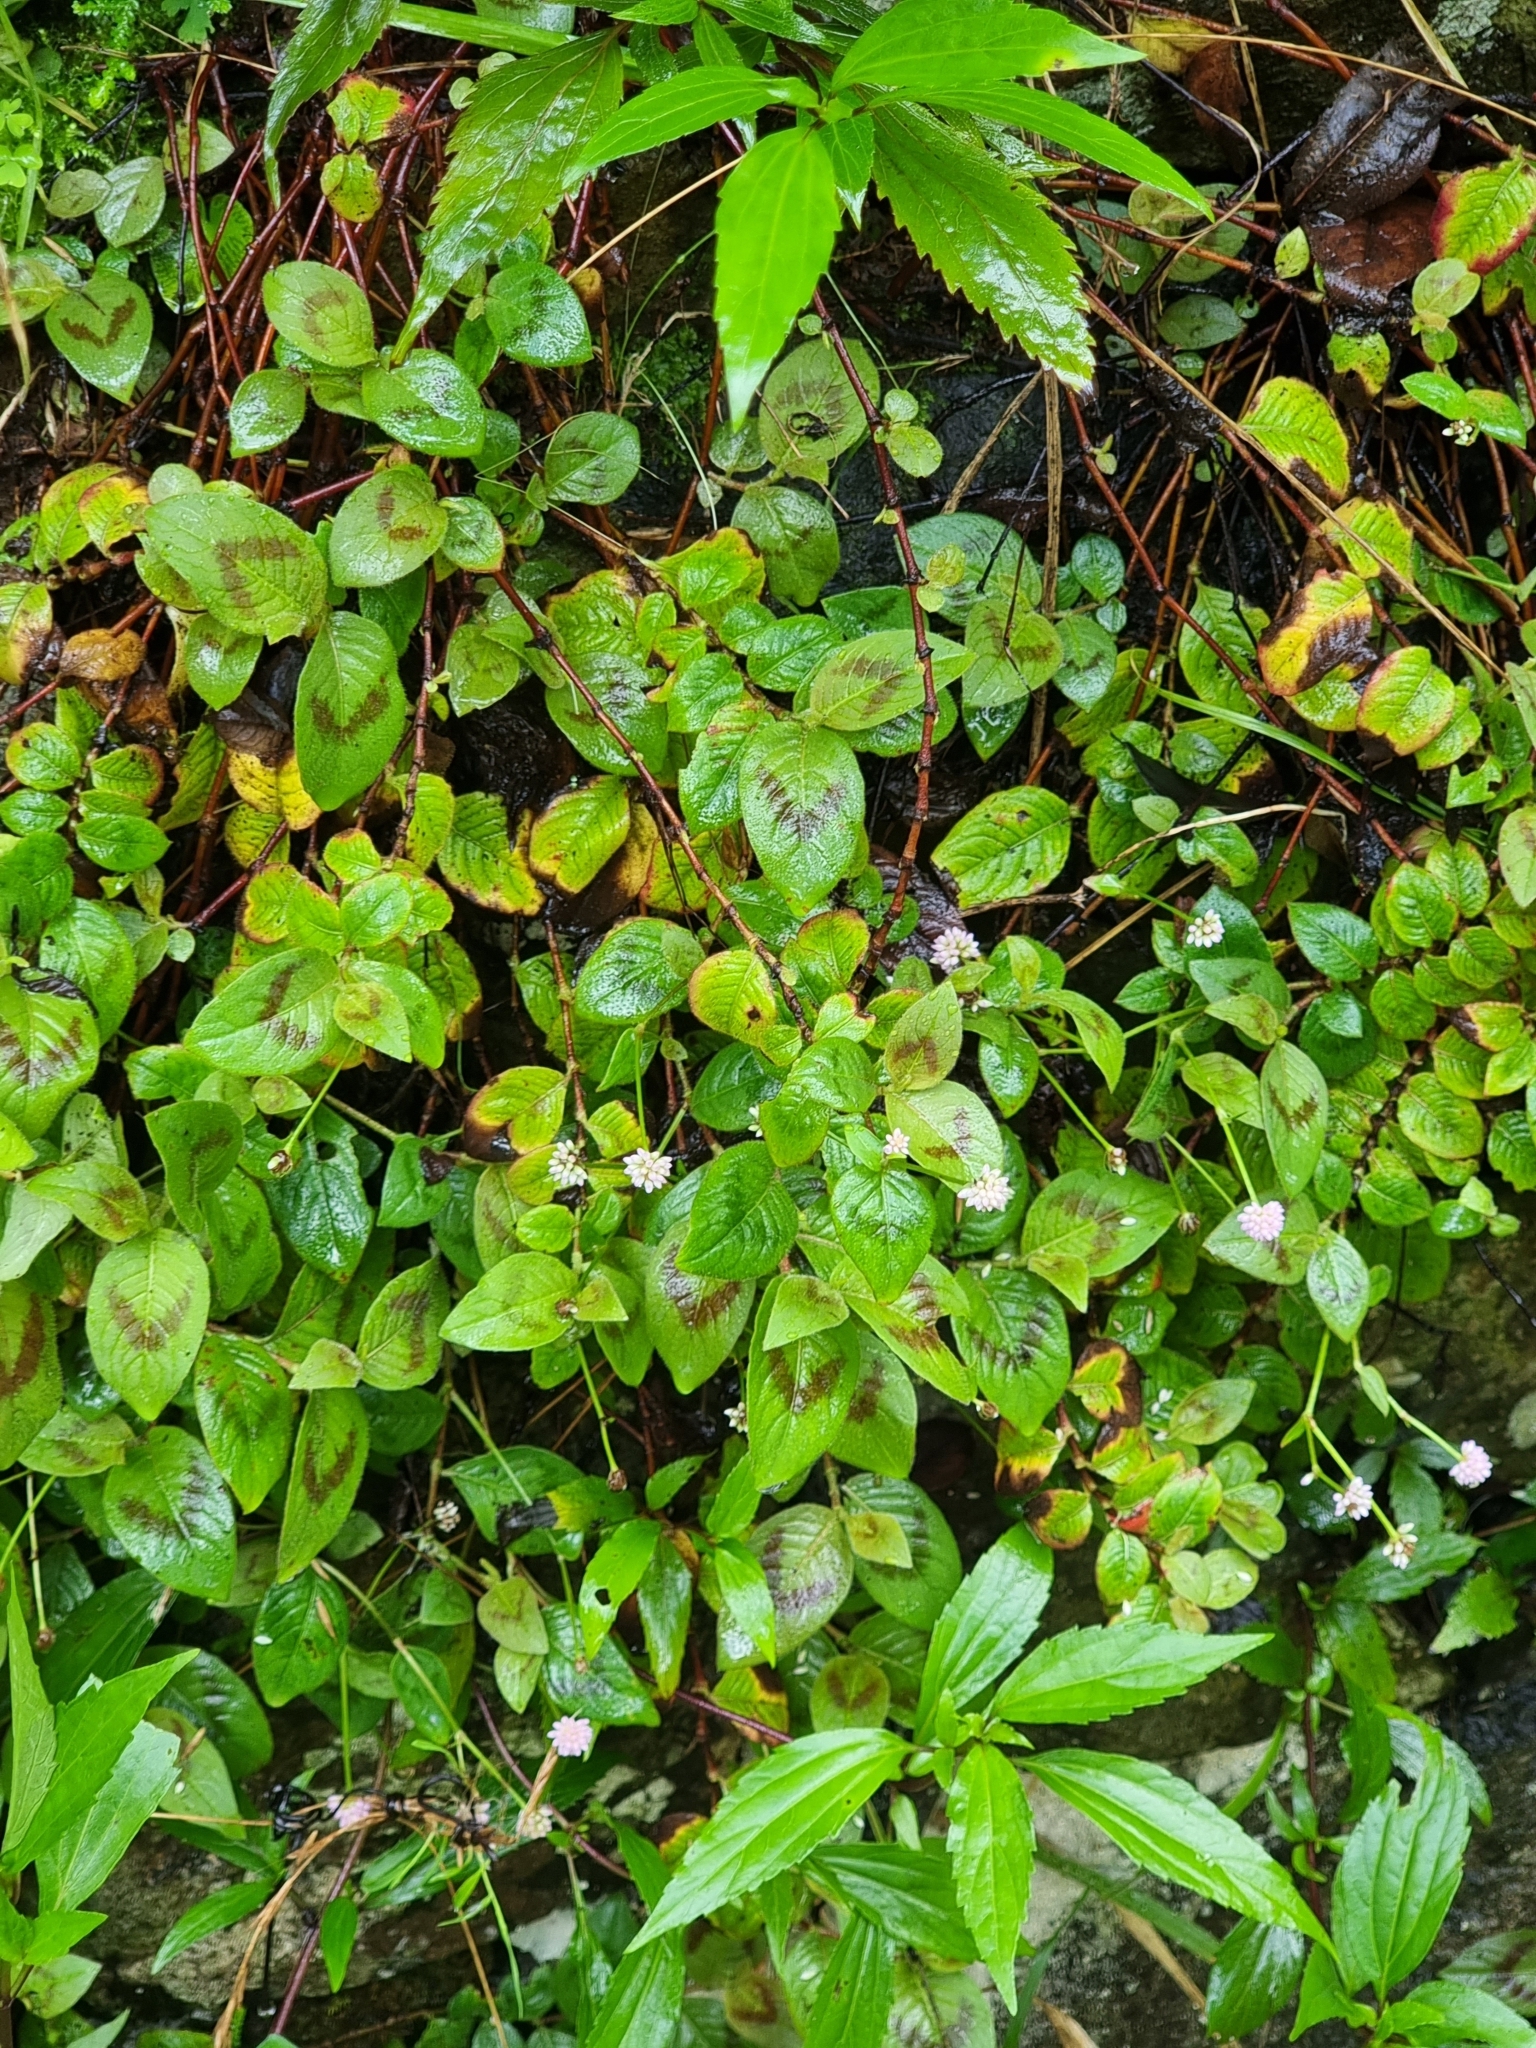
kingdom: Plantae
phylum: Tracheophyta
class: Magnoliopsida
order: Caryophyllales
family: Polygonaceae
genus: Persicaria
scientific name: Persicaria capitata
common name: Pinkhead smartweed
